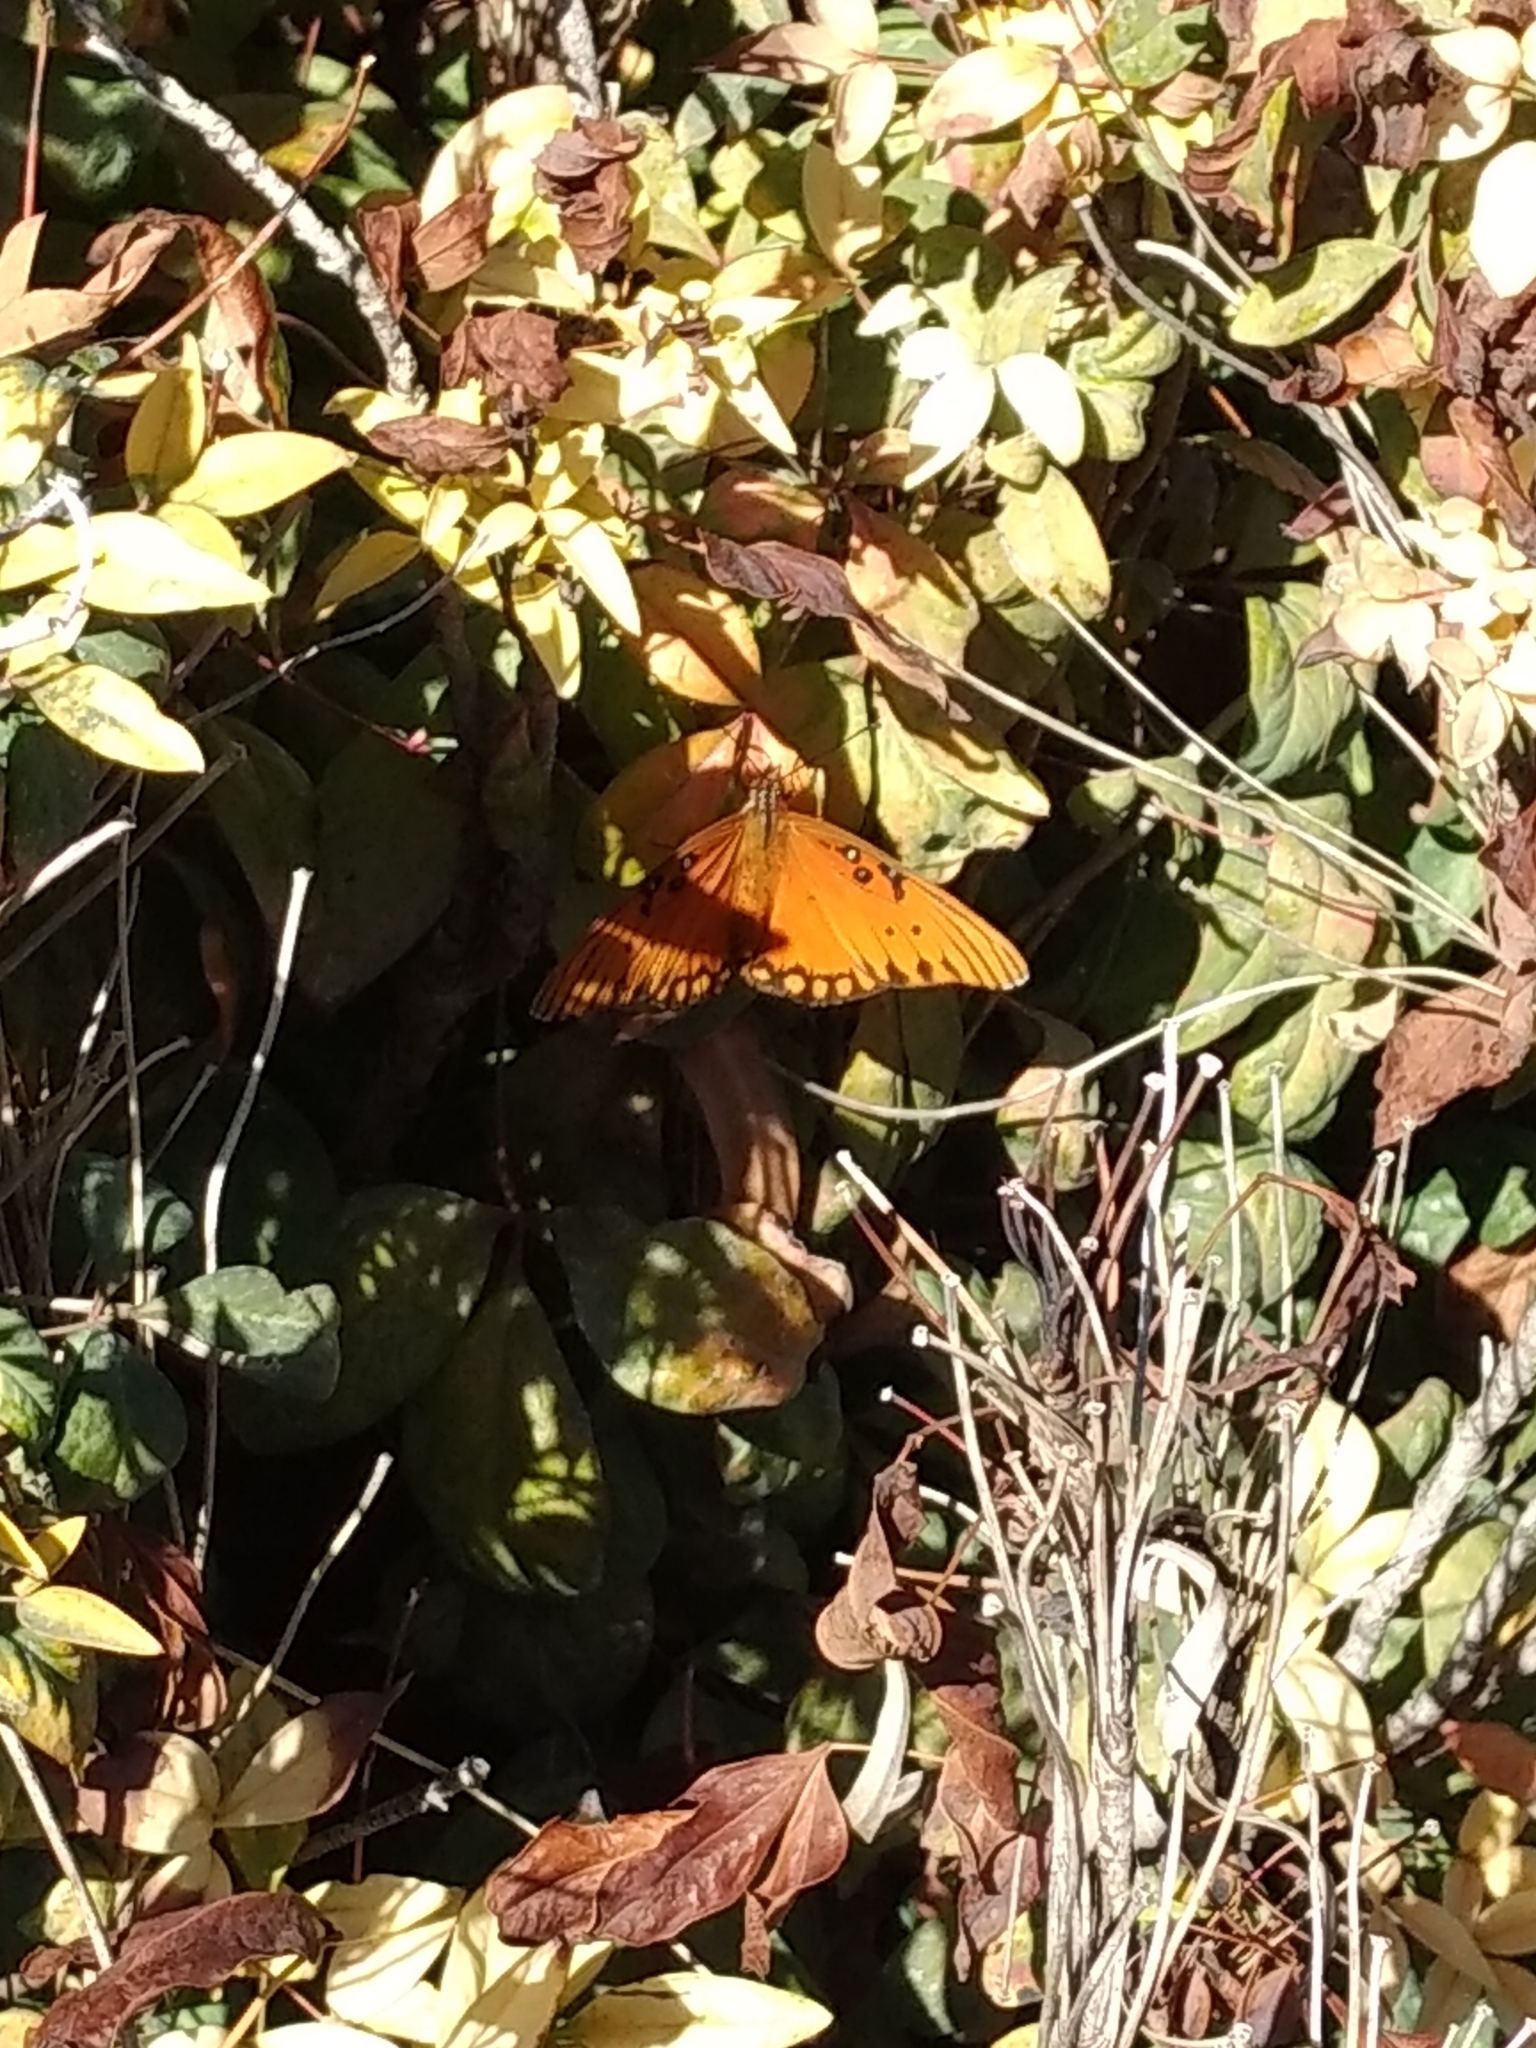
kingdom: Animalia
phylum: Arthropoda
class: Insecta
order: Lepidoptera
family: Nymphalidae
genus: Dione
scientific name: Dione vanillae
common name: Gulf fritillary
